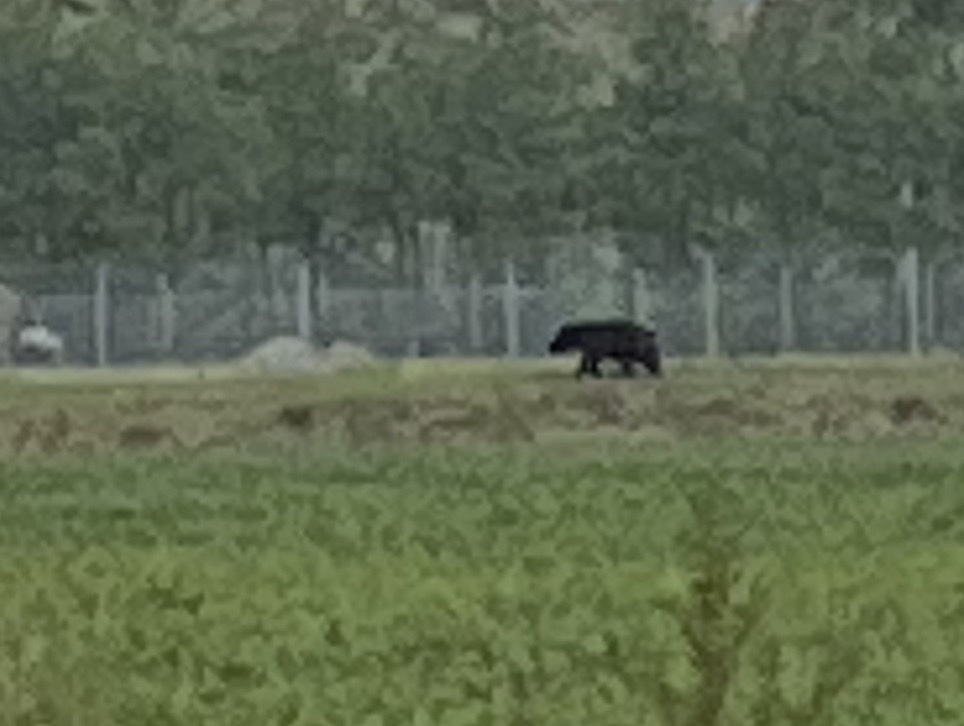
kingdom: Animalia
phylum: Chordata
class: Mammalia
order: Carnivora
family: Ursidae
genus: Ursus
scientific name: Ursus americanus
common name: American black bear
